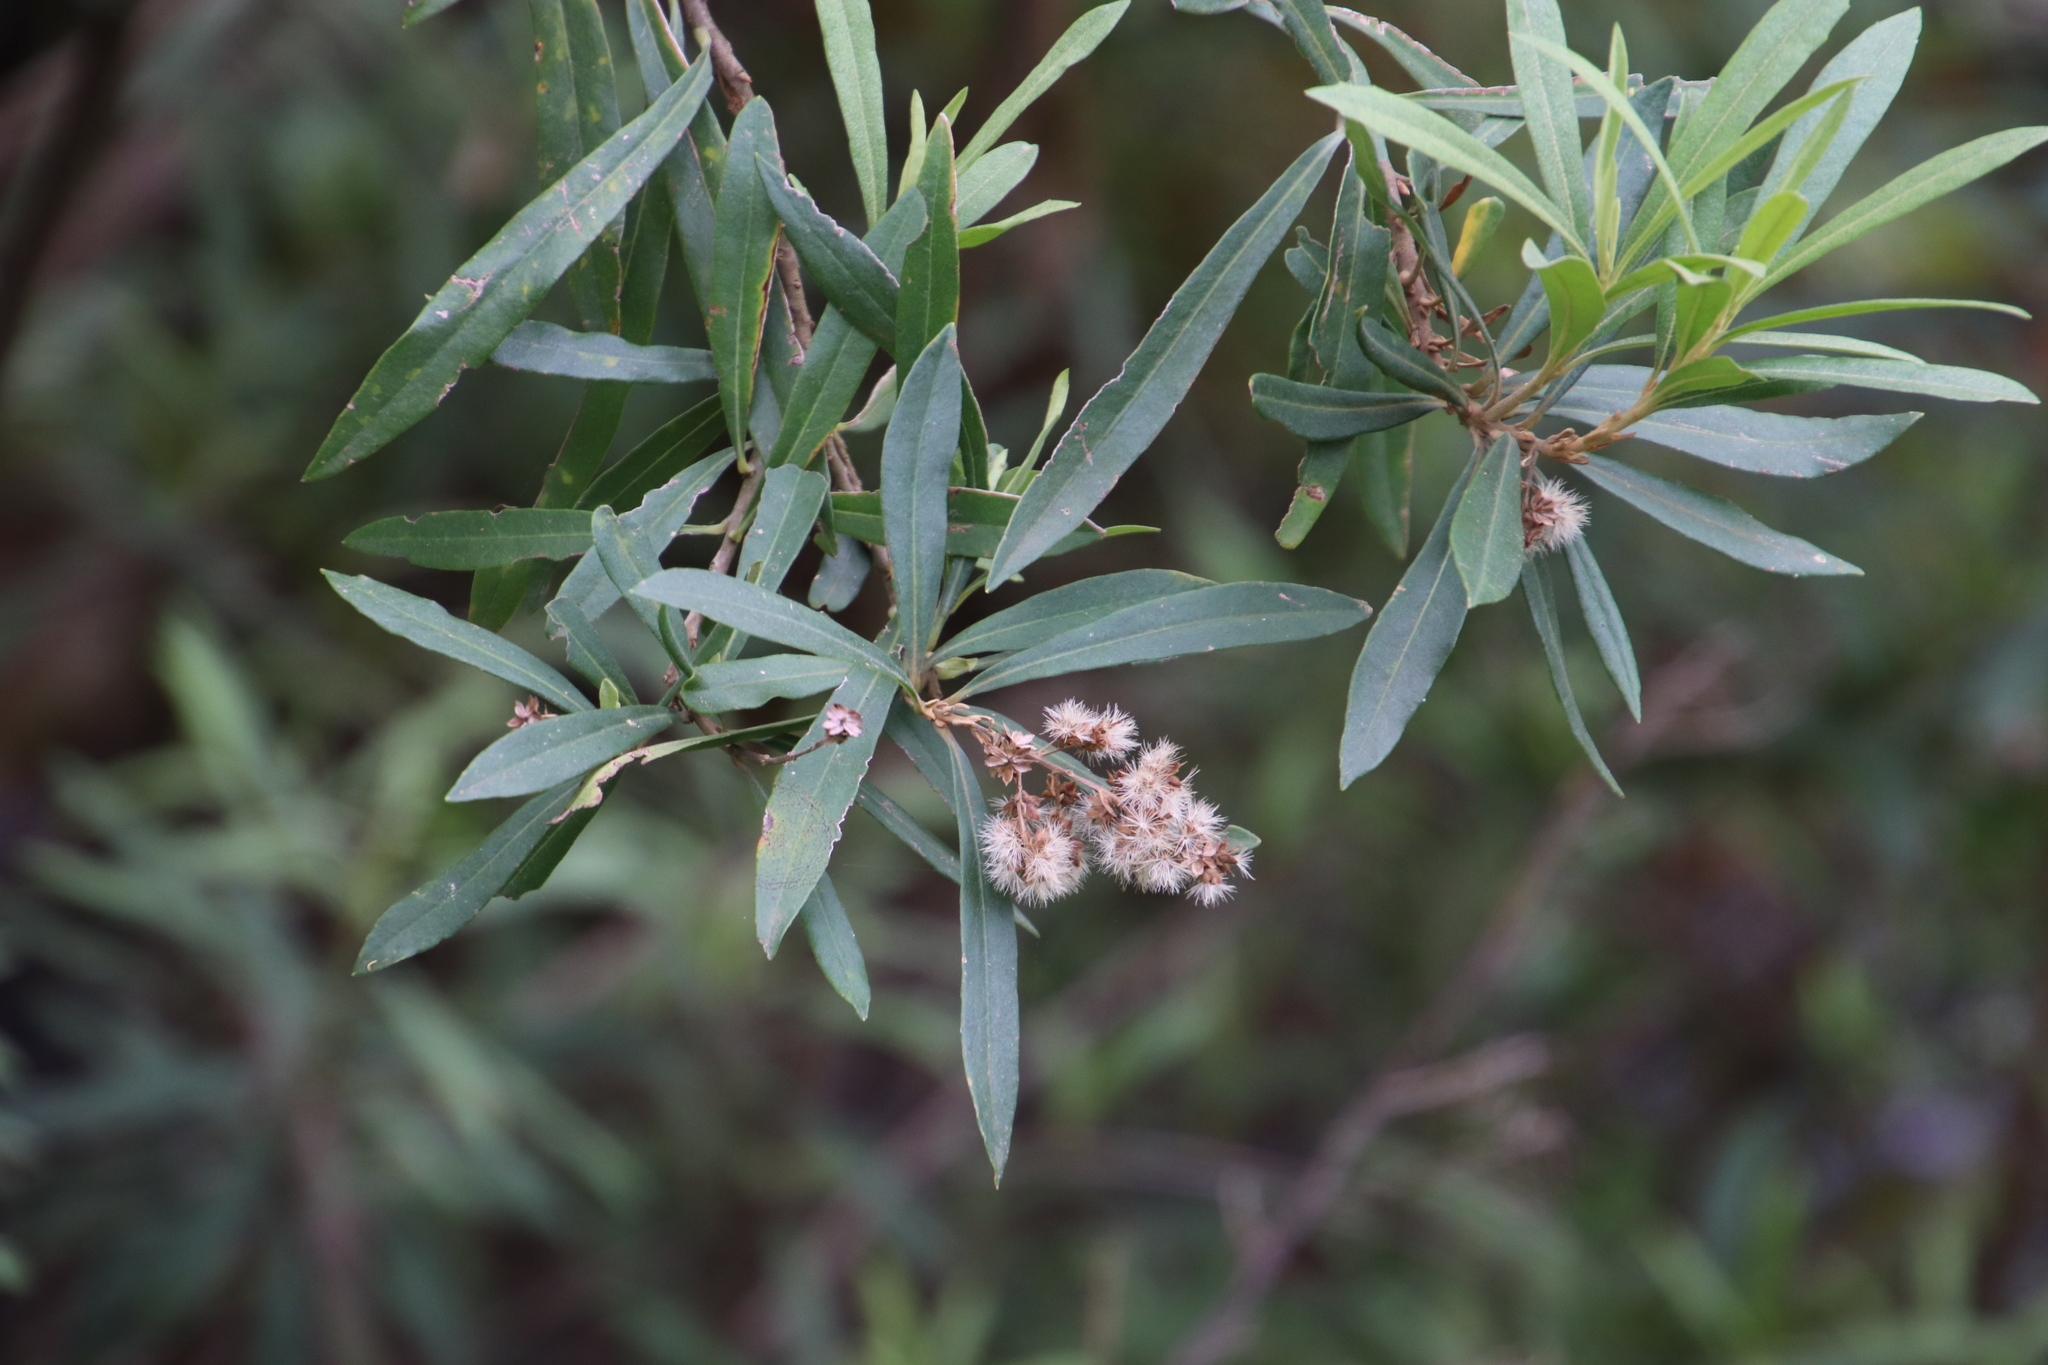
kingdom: Plantae
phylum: Tracheophyta
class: Magnoliopsida
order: Asterales
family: Asteraceae
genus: Brachylaena
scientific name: Brachylaena neriifolia
